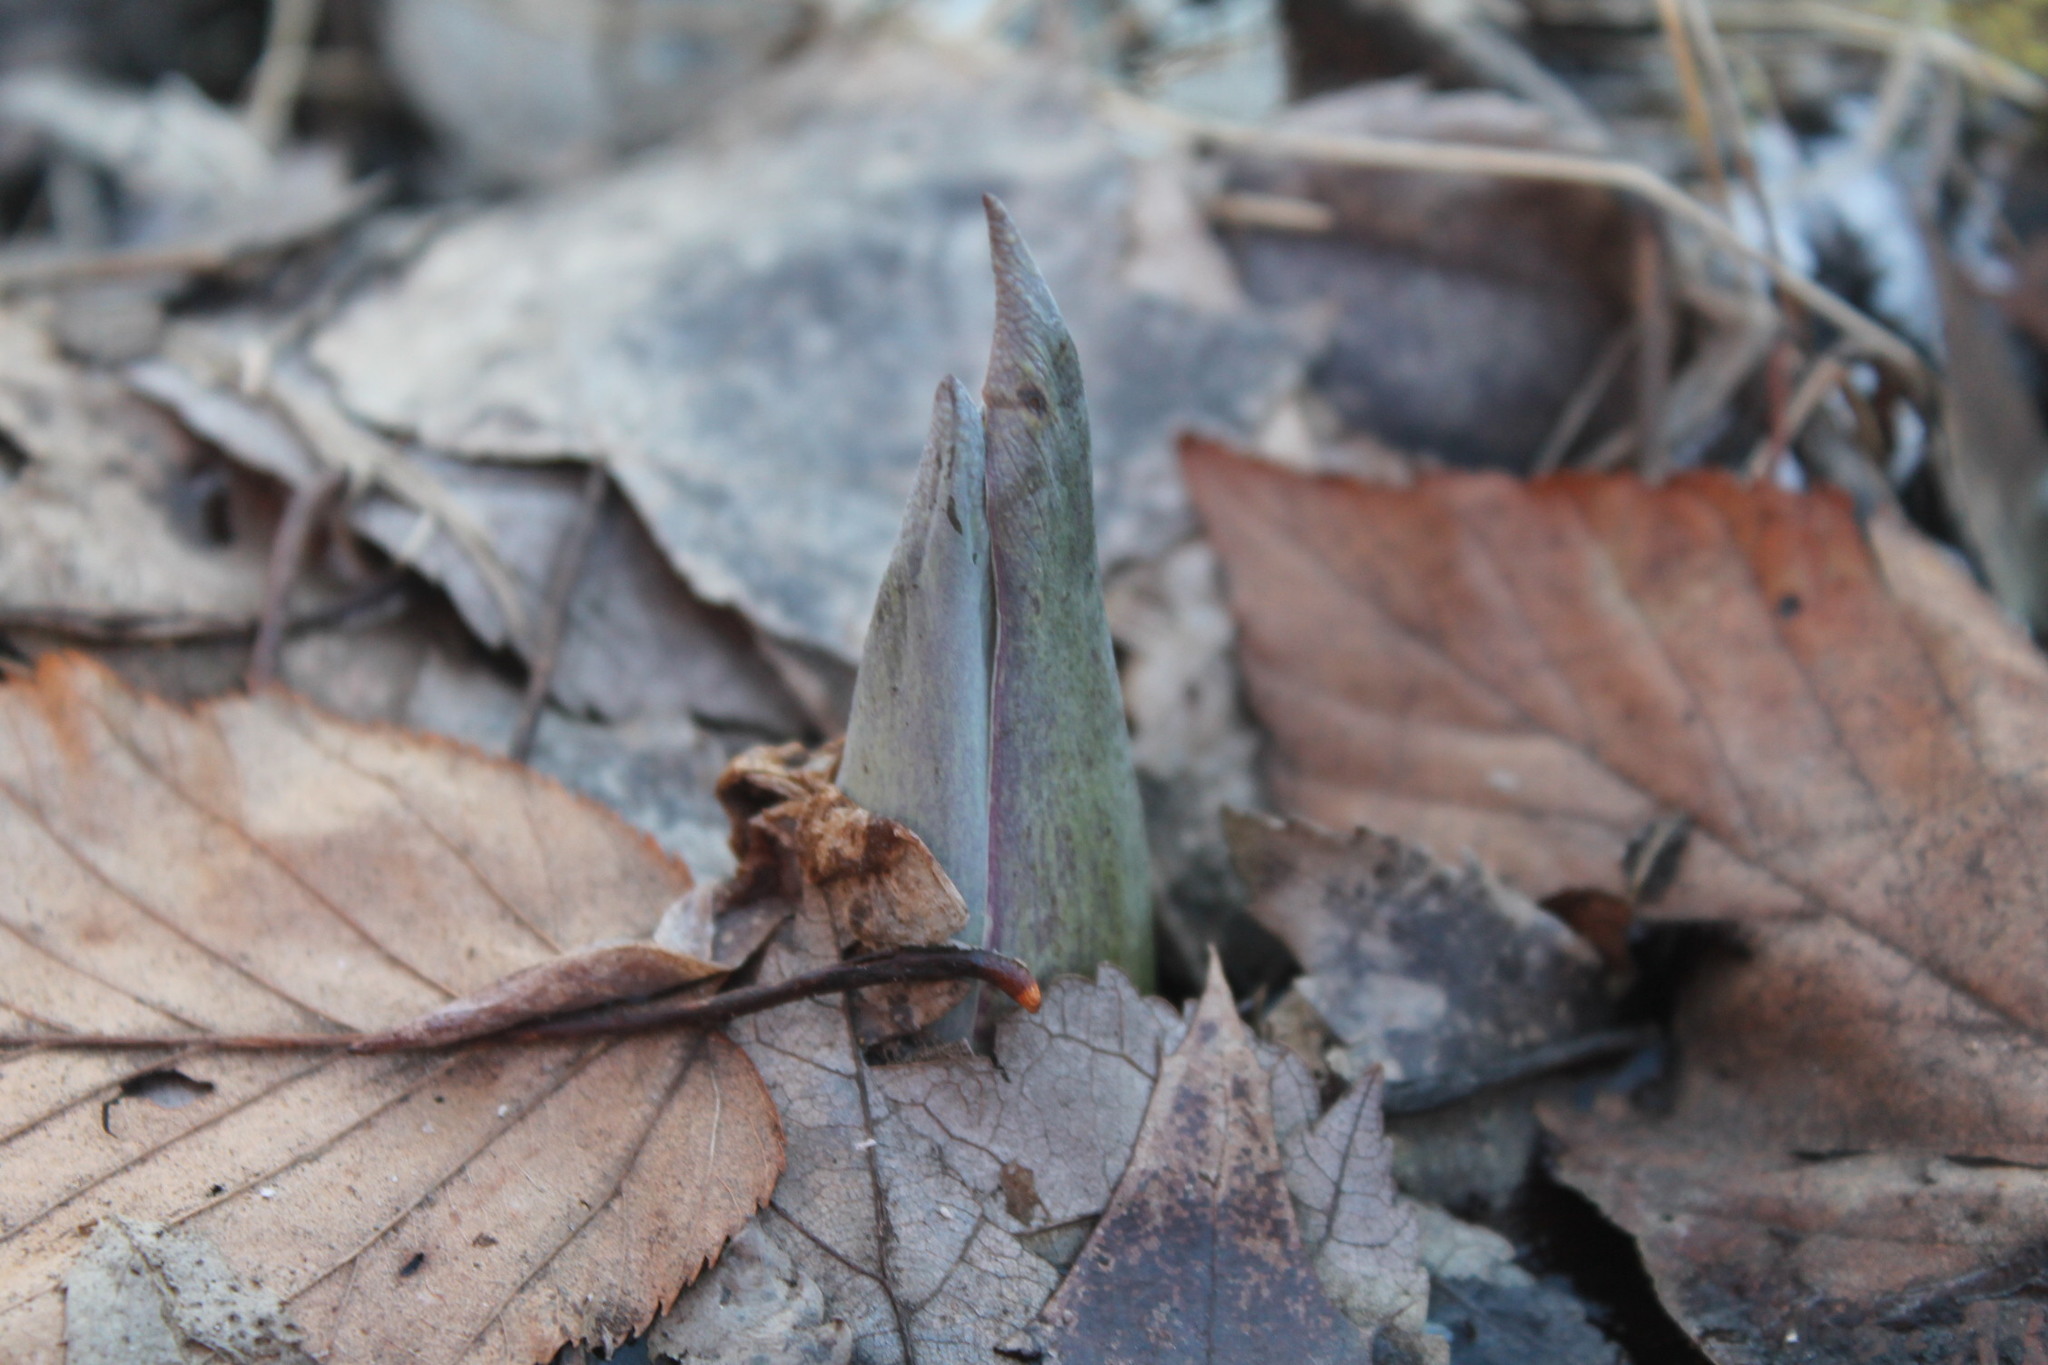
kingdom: Plantae
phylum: Tracheophyta
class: Liliopsida
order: Alismatales
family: Araceae
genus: Symplocarpus
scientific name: Symplocarpus foetidus
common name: Eastern skunk cabbage
